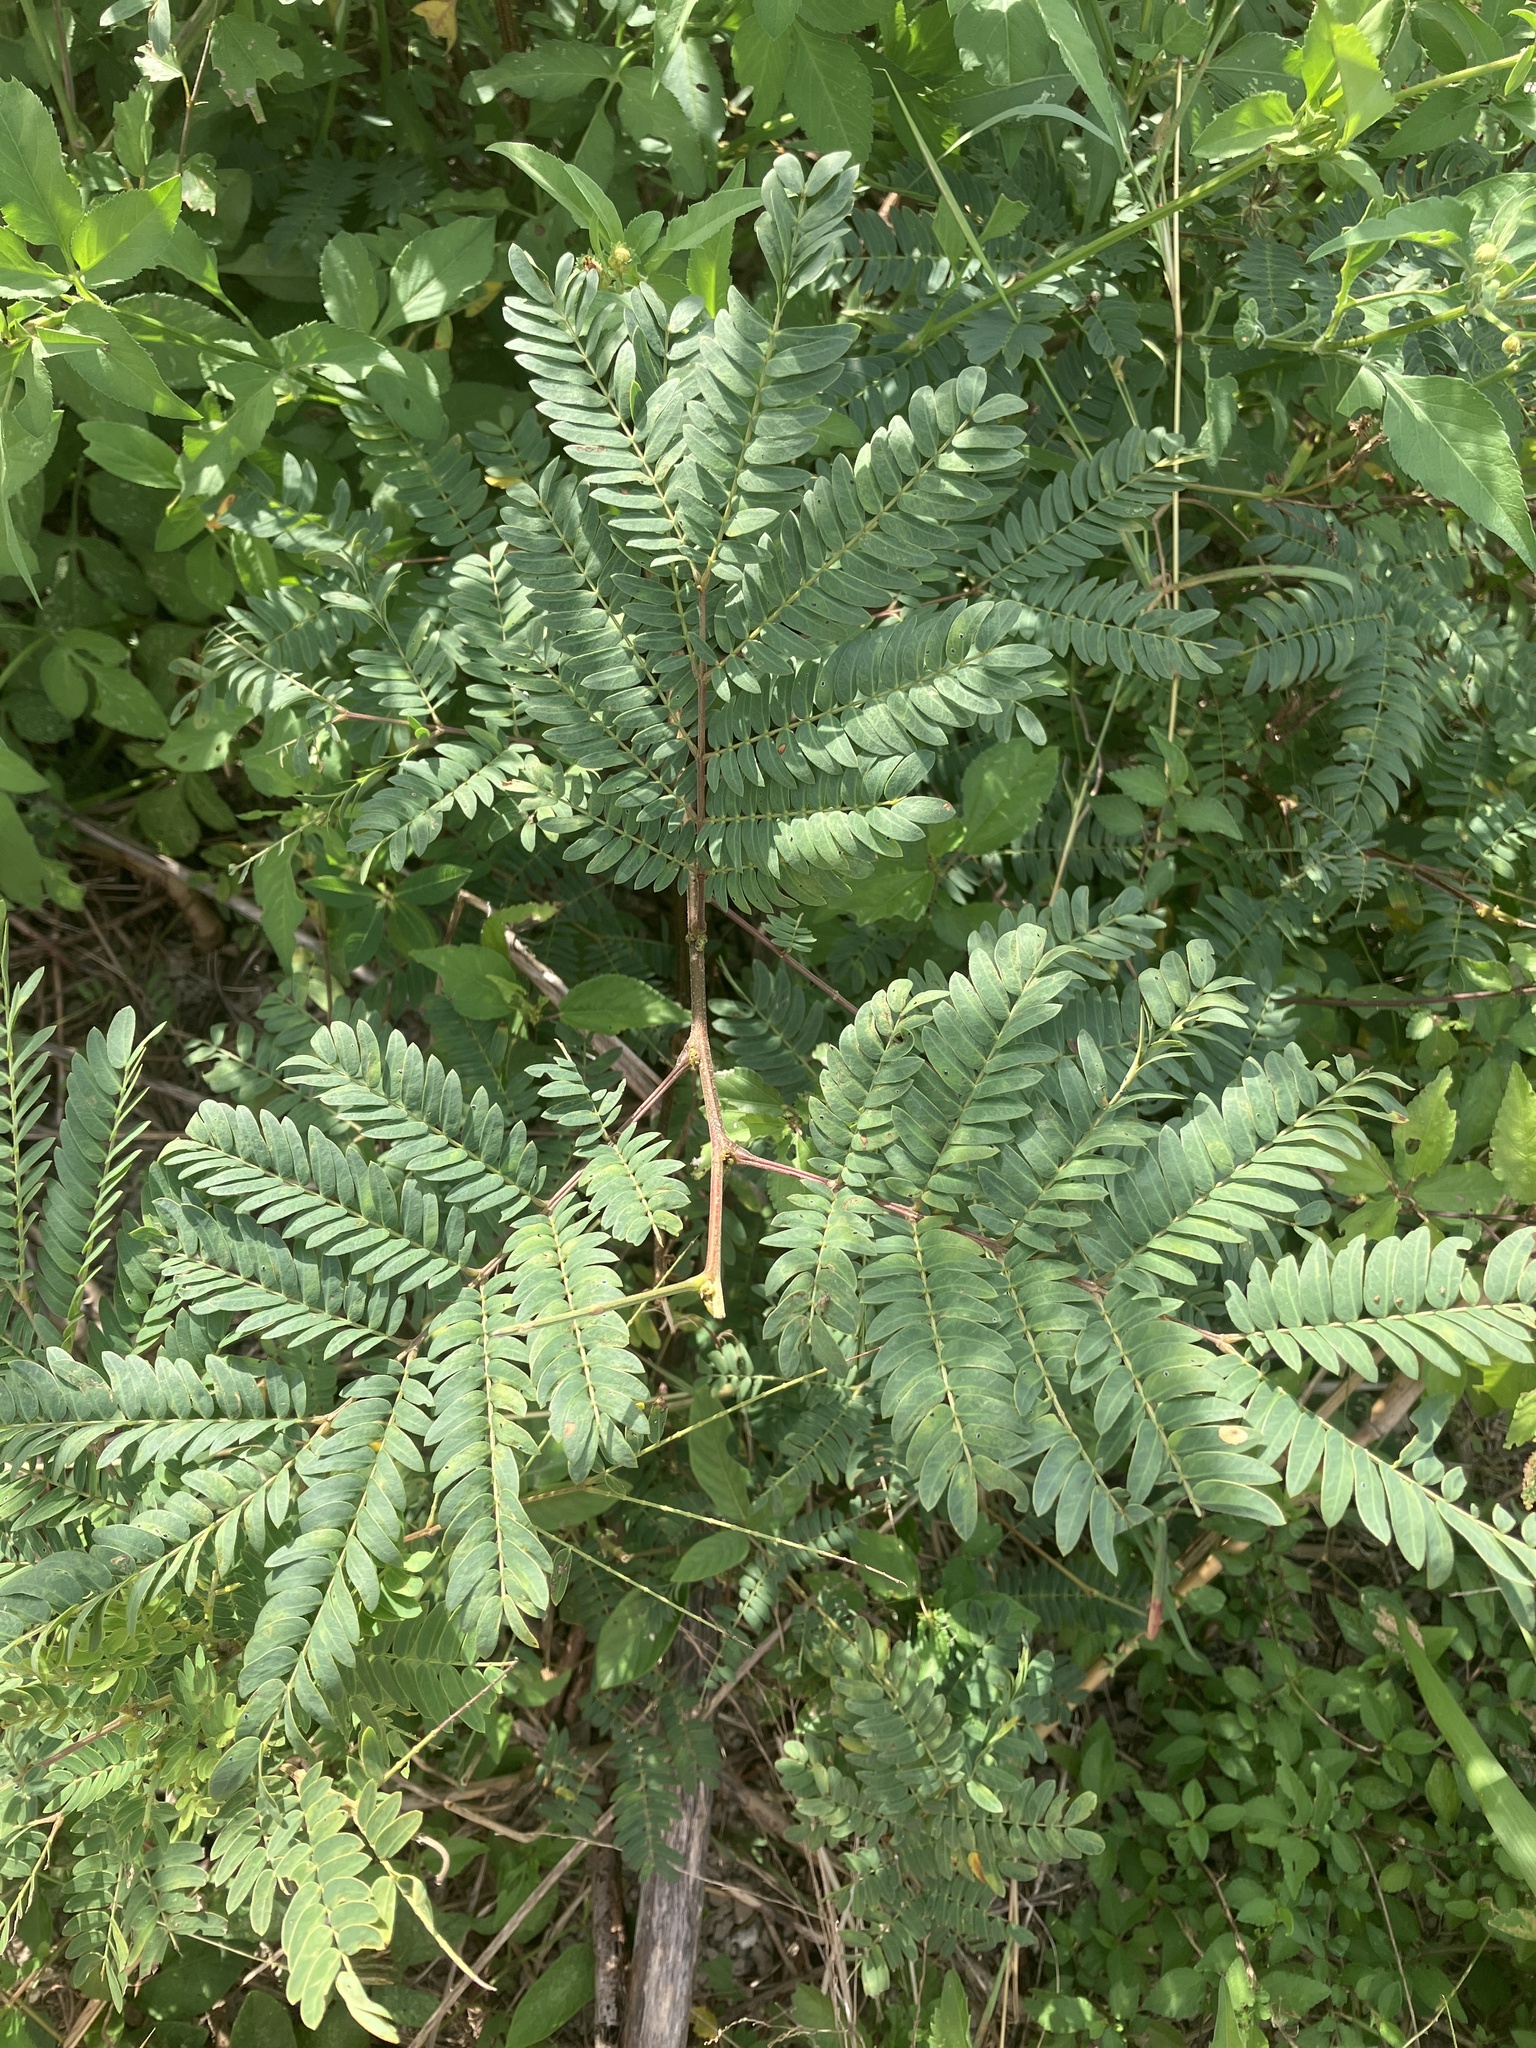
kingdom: Plantae
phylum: Tracheophyta
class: Magnoliopsida
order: Fabales
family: Fabaceae
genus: Leucaena
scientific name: Leucaena leucocephala
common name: White leadtree
